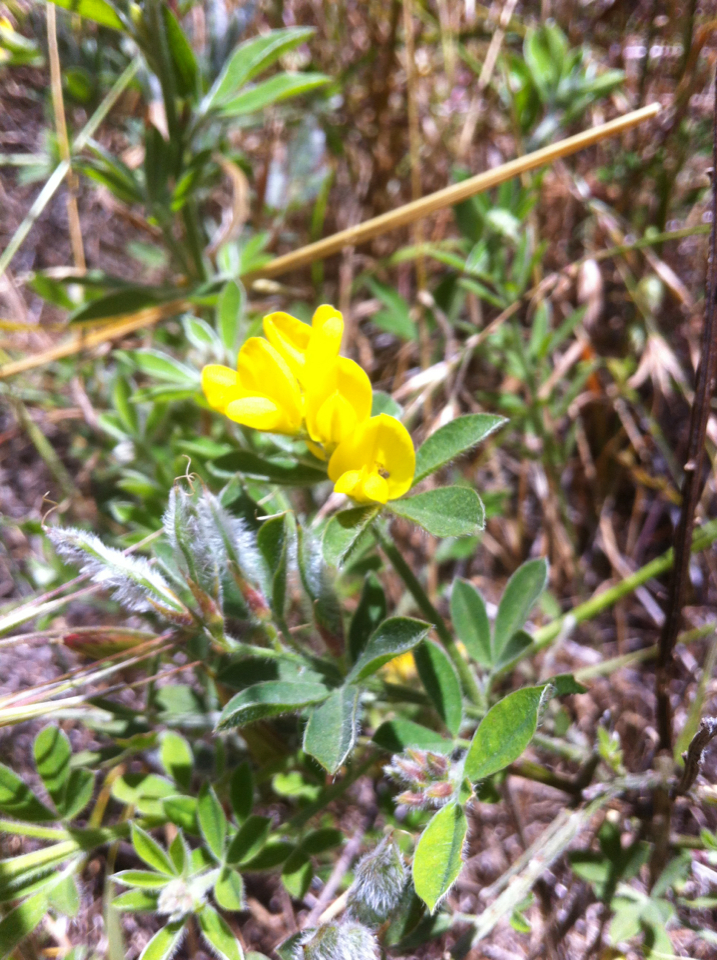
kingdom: Plantae
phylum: Tracheophyta
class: Magnoliopsida
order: Fabales
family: Fabaceae
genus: Genista
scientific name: Genista monspessulana
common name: Montpellier broom
